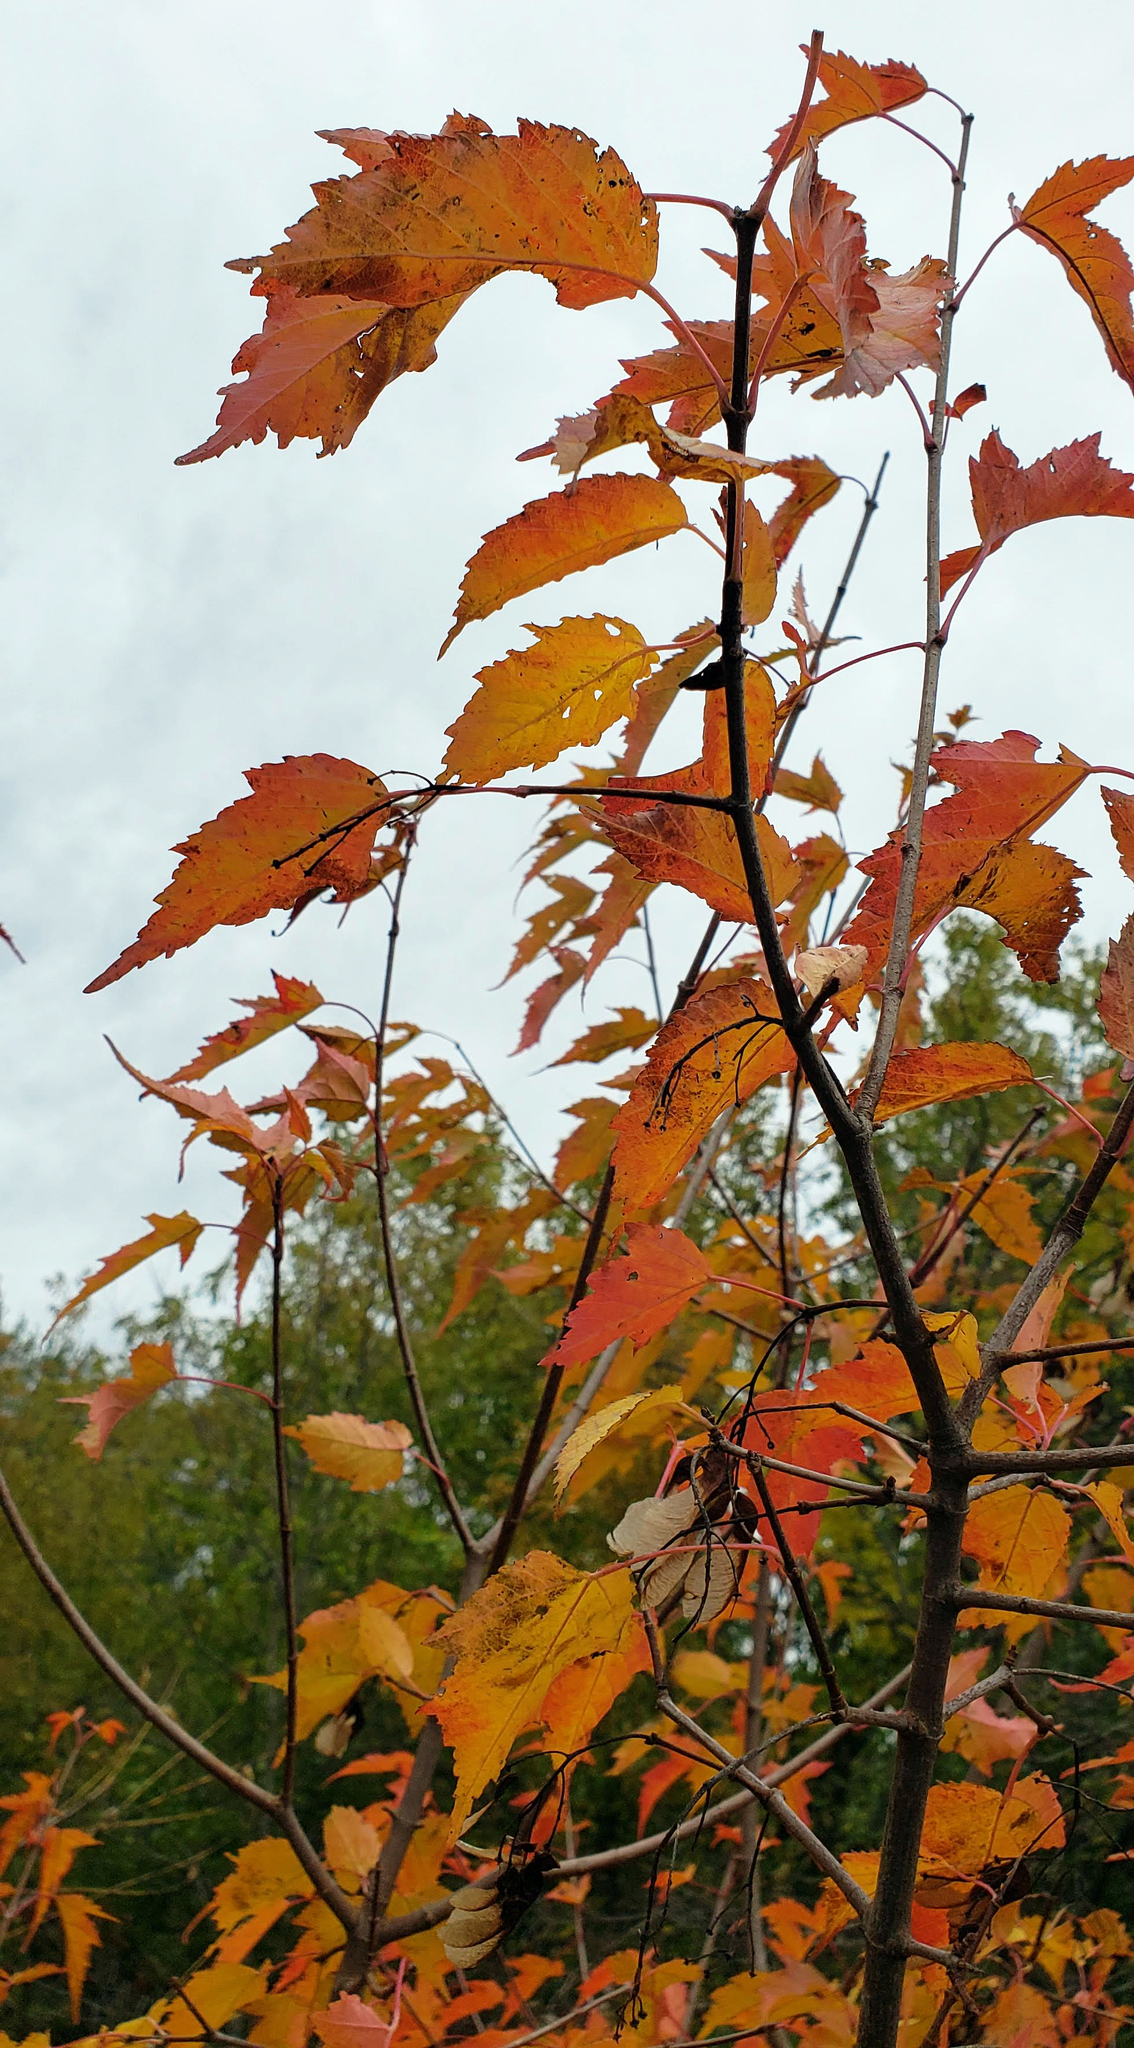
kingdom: Plantae
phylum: Tracheophyta
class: Magnoliopsida
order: Sapindales
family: Sapindaceae
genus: Acer
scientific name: Acer tataricum
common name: Tartar maple
